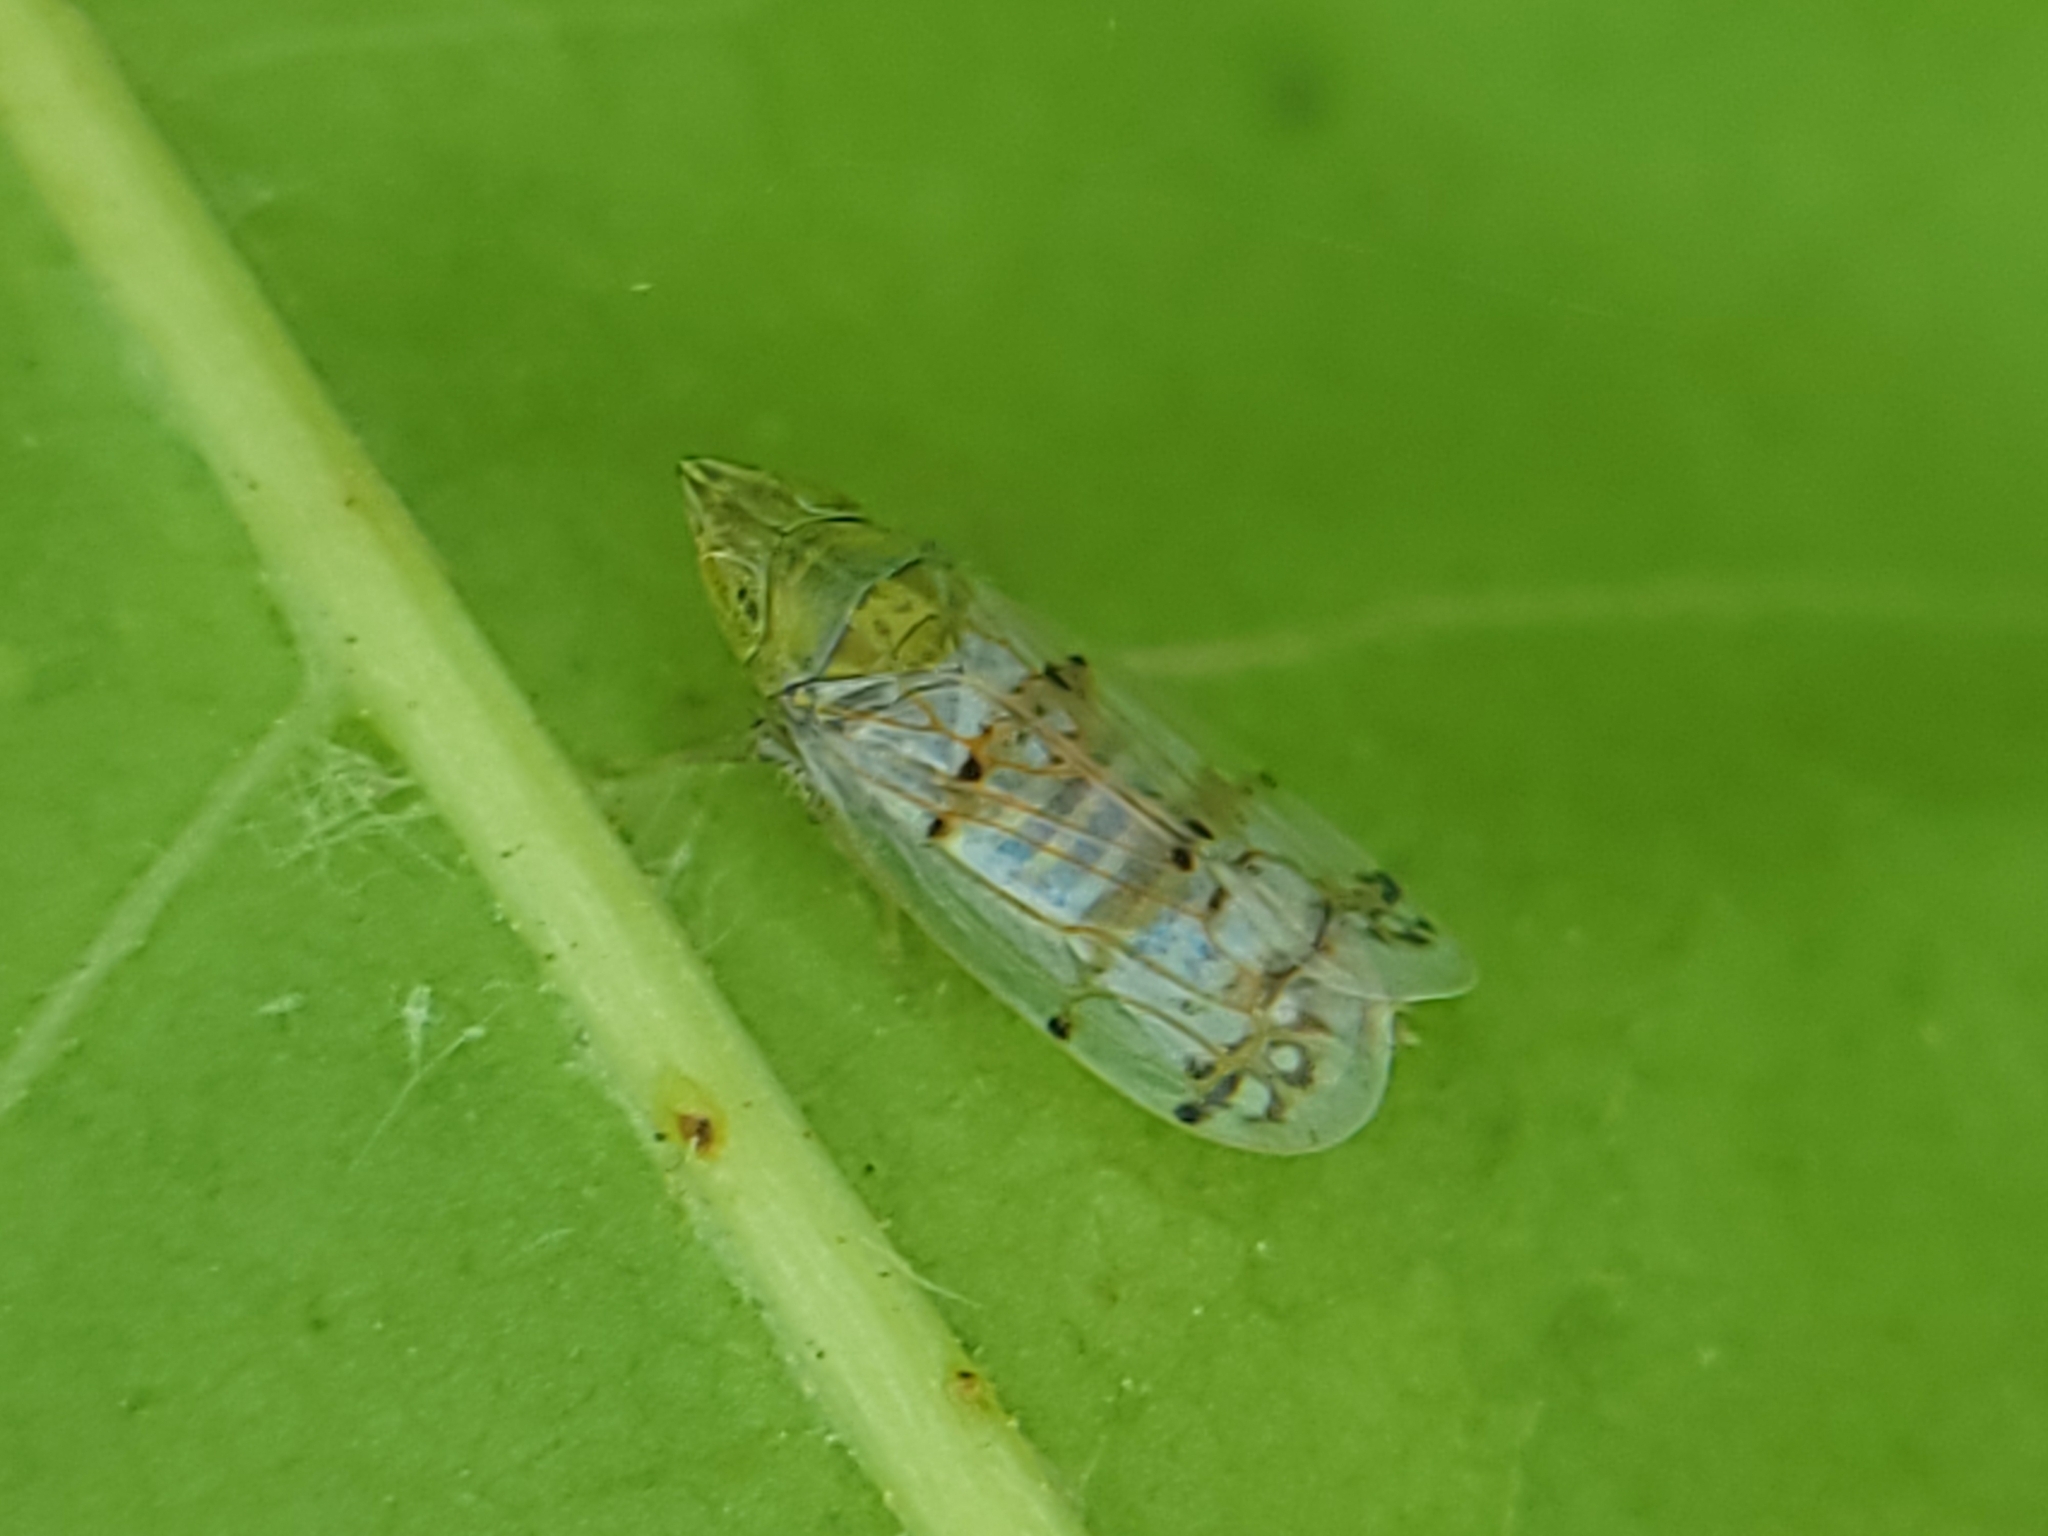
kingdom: Animalia
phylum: Arthropoda
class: Insecta
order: Hemiptera
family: Cicadellidae
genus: Japananus
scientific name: Japananus hyalinus
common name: The japanese maple leafhopper
